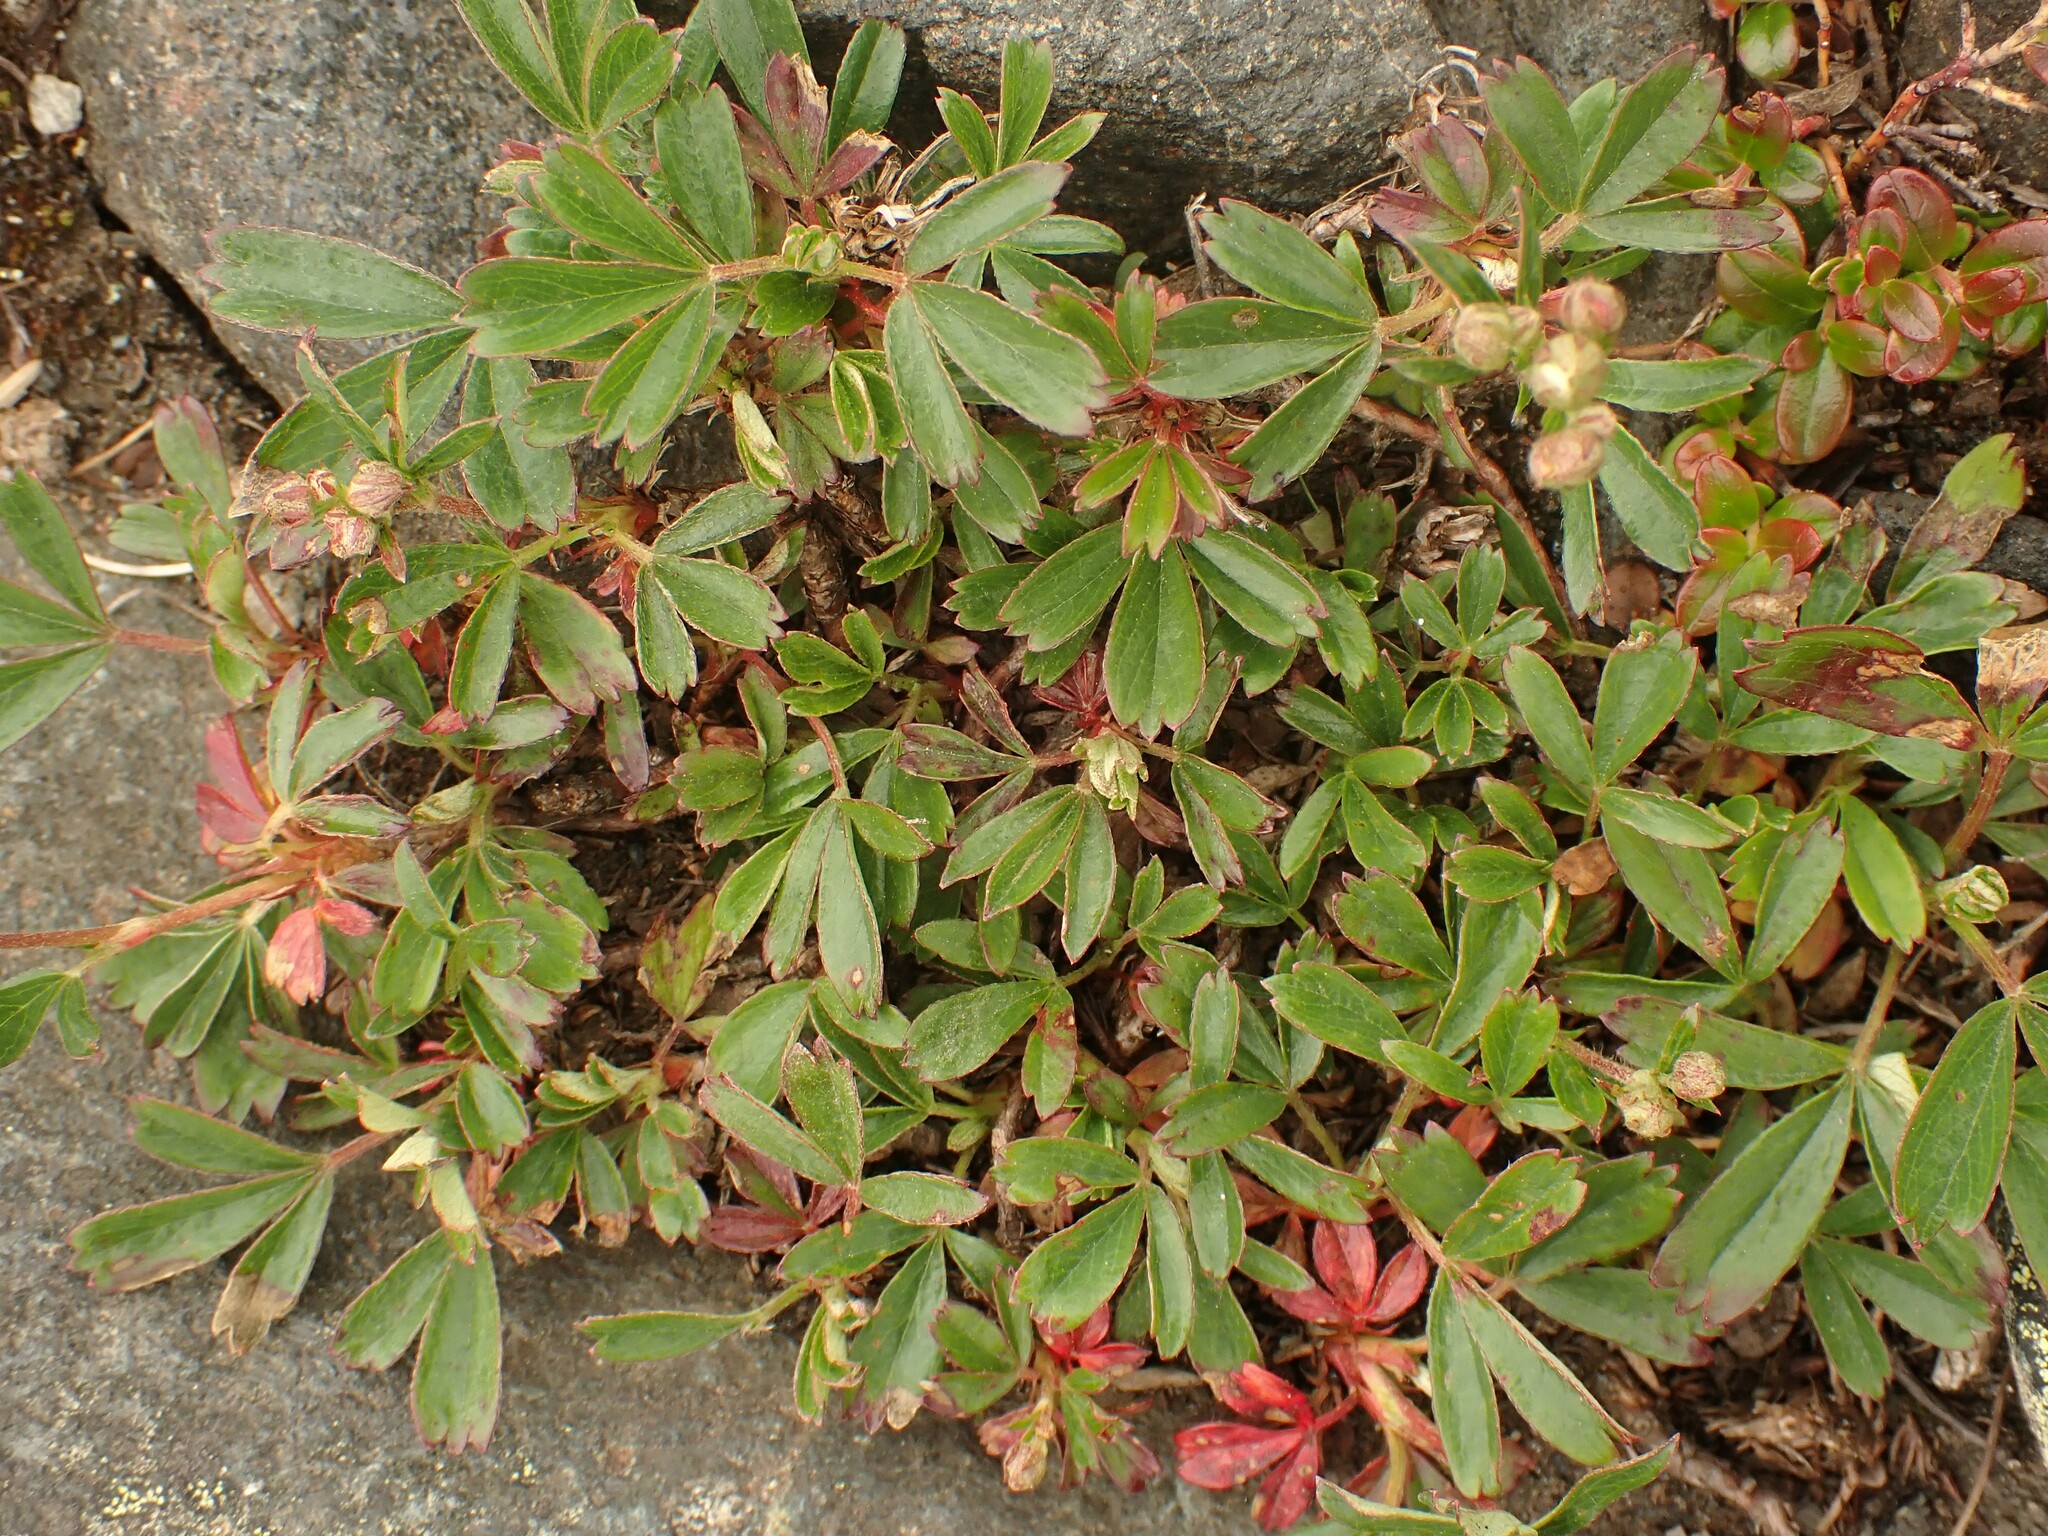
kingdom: Plantae
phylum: Tracheophyta
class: Magnoliopsida
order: Rosales
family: Rosaceae
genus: Sibbaldia
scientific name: Sibbaldia tridentata
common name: Three-toothed cinquefoil
